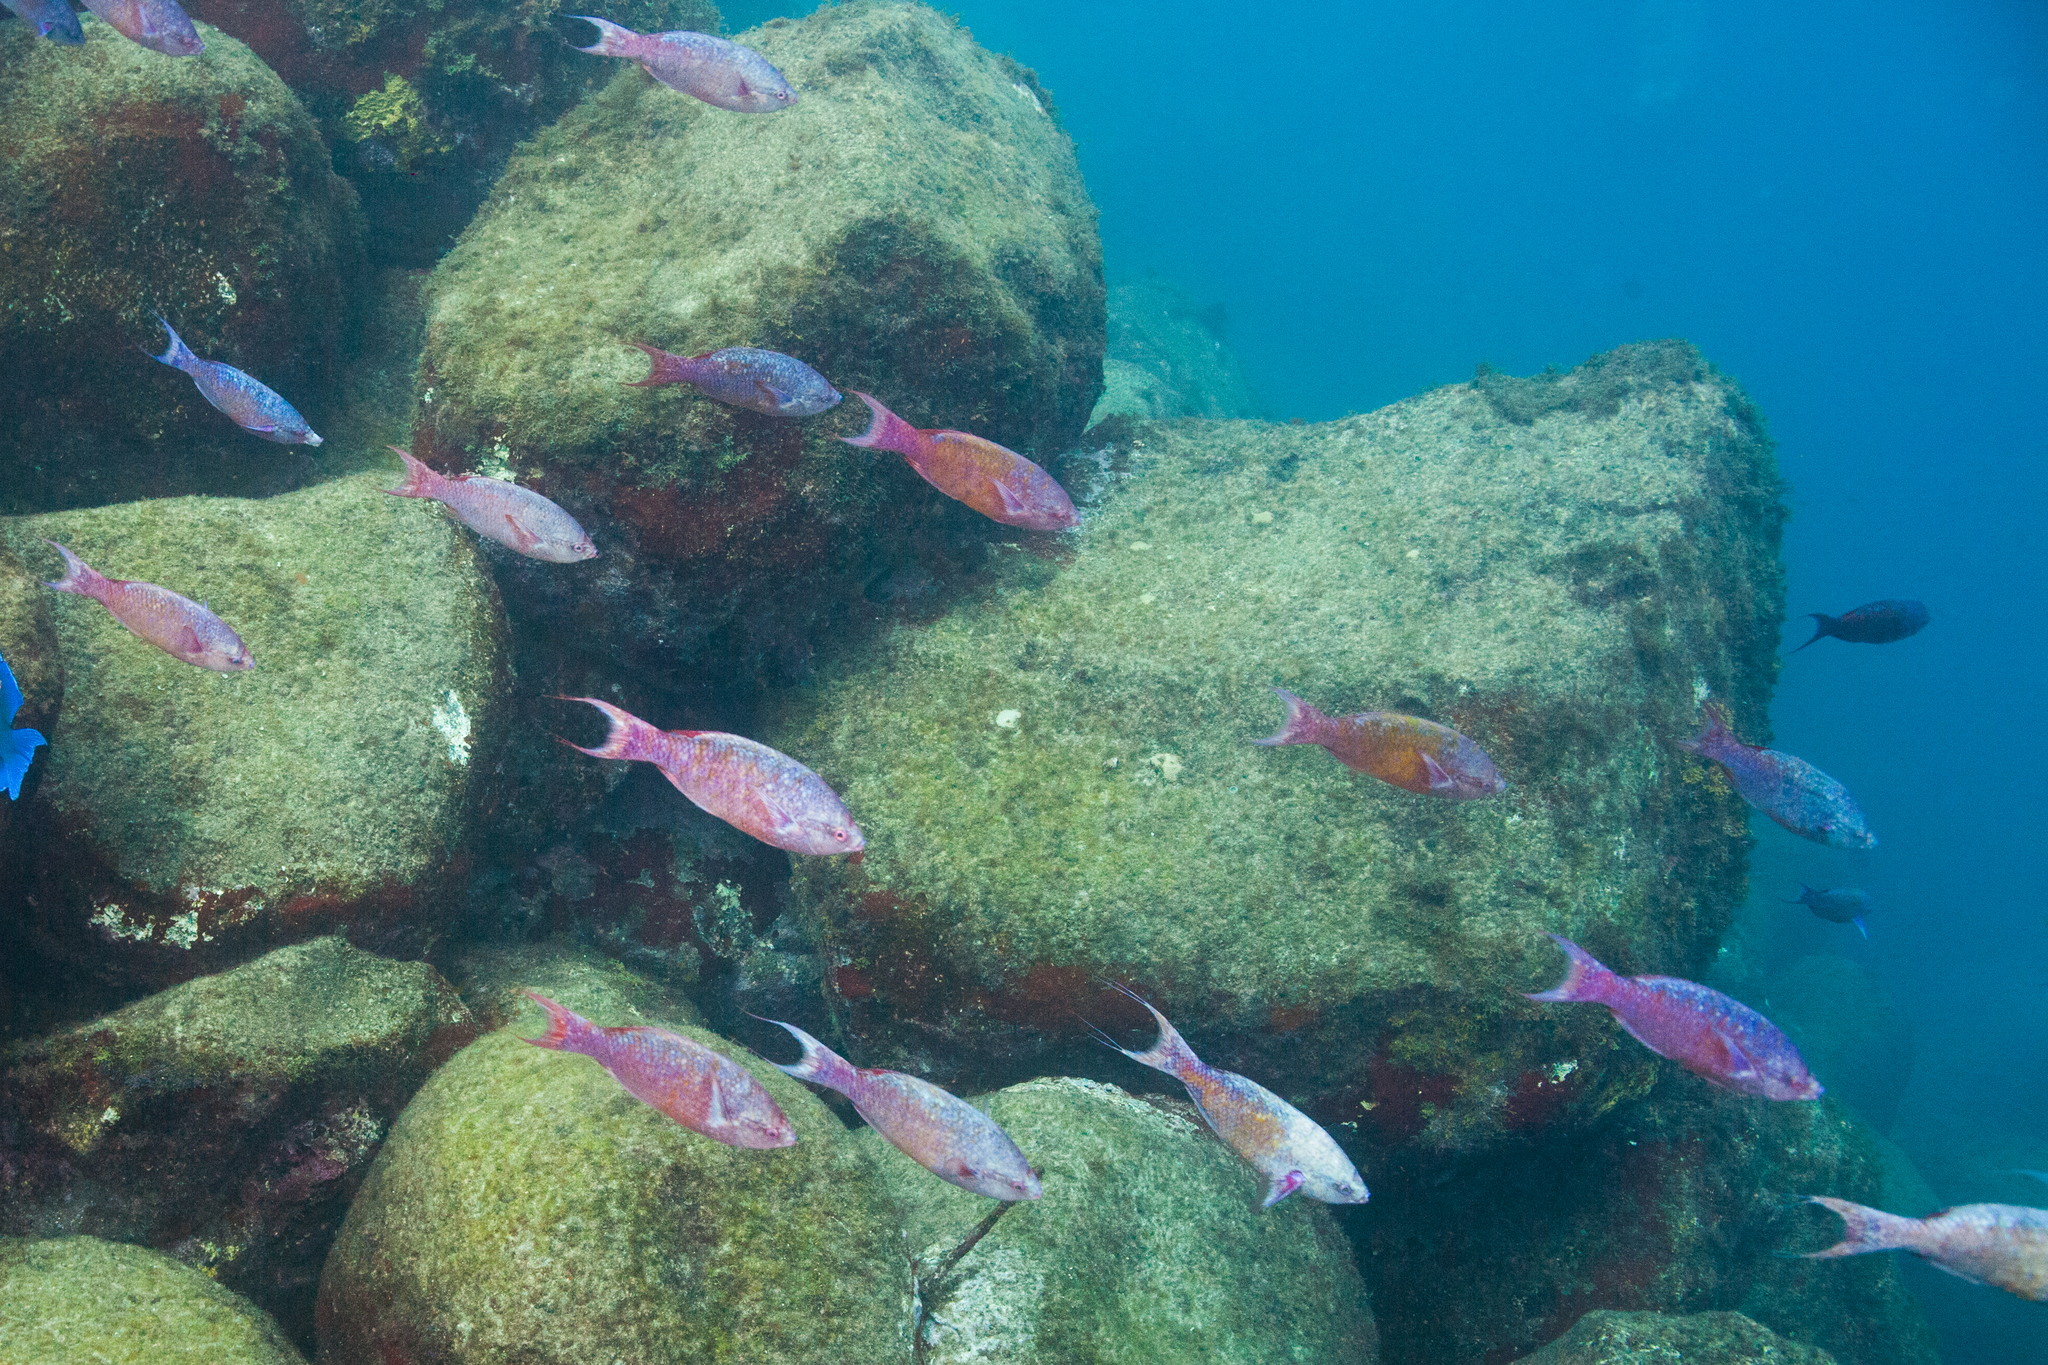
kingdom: Animalia
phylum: Chordata
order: Perciformes
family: Labridae
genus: Bodianus
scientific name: Bodianus
